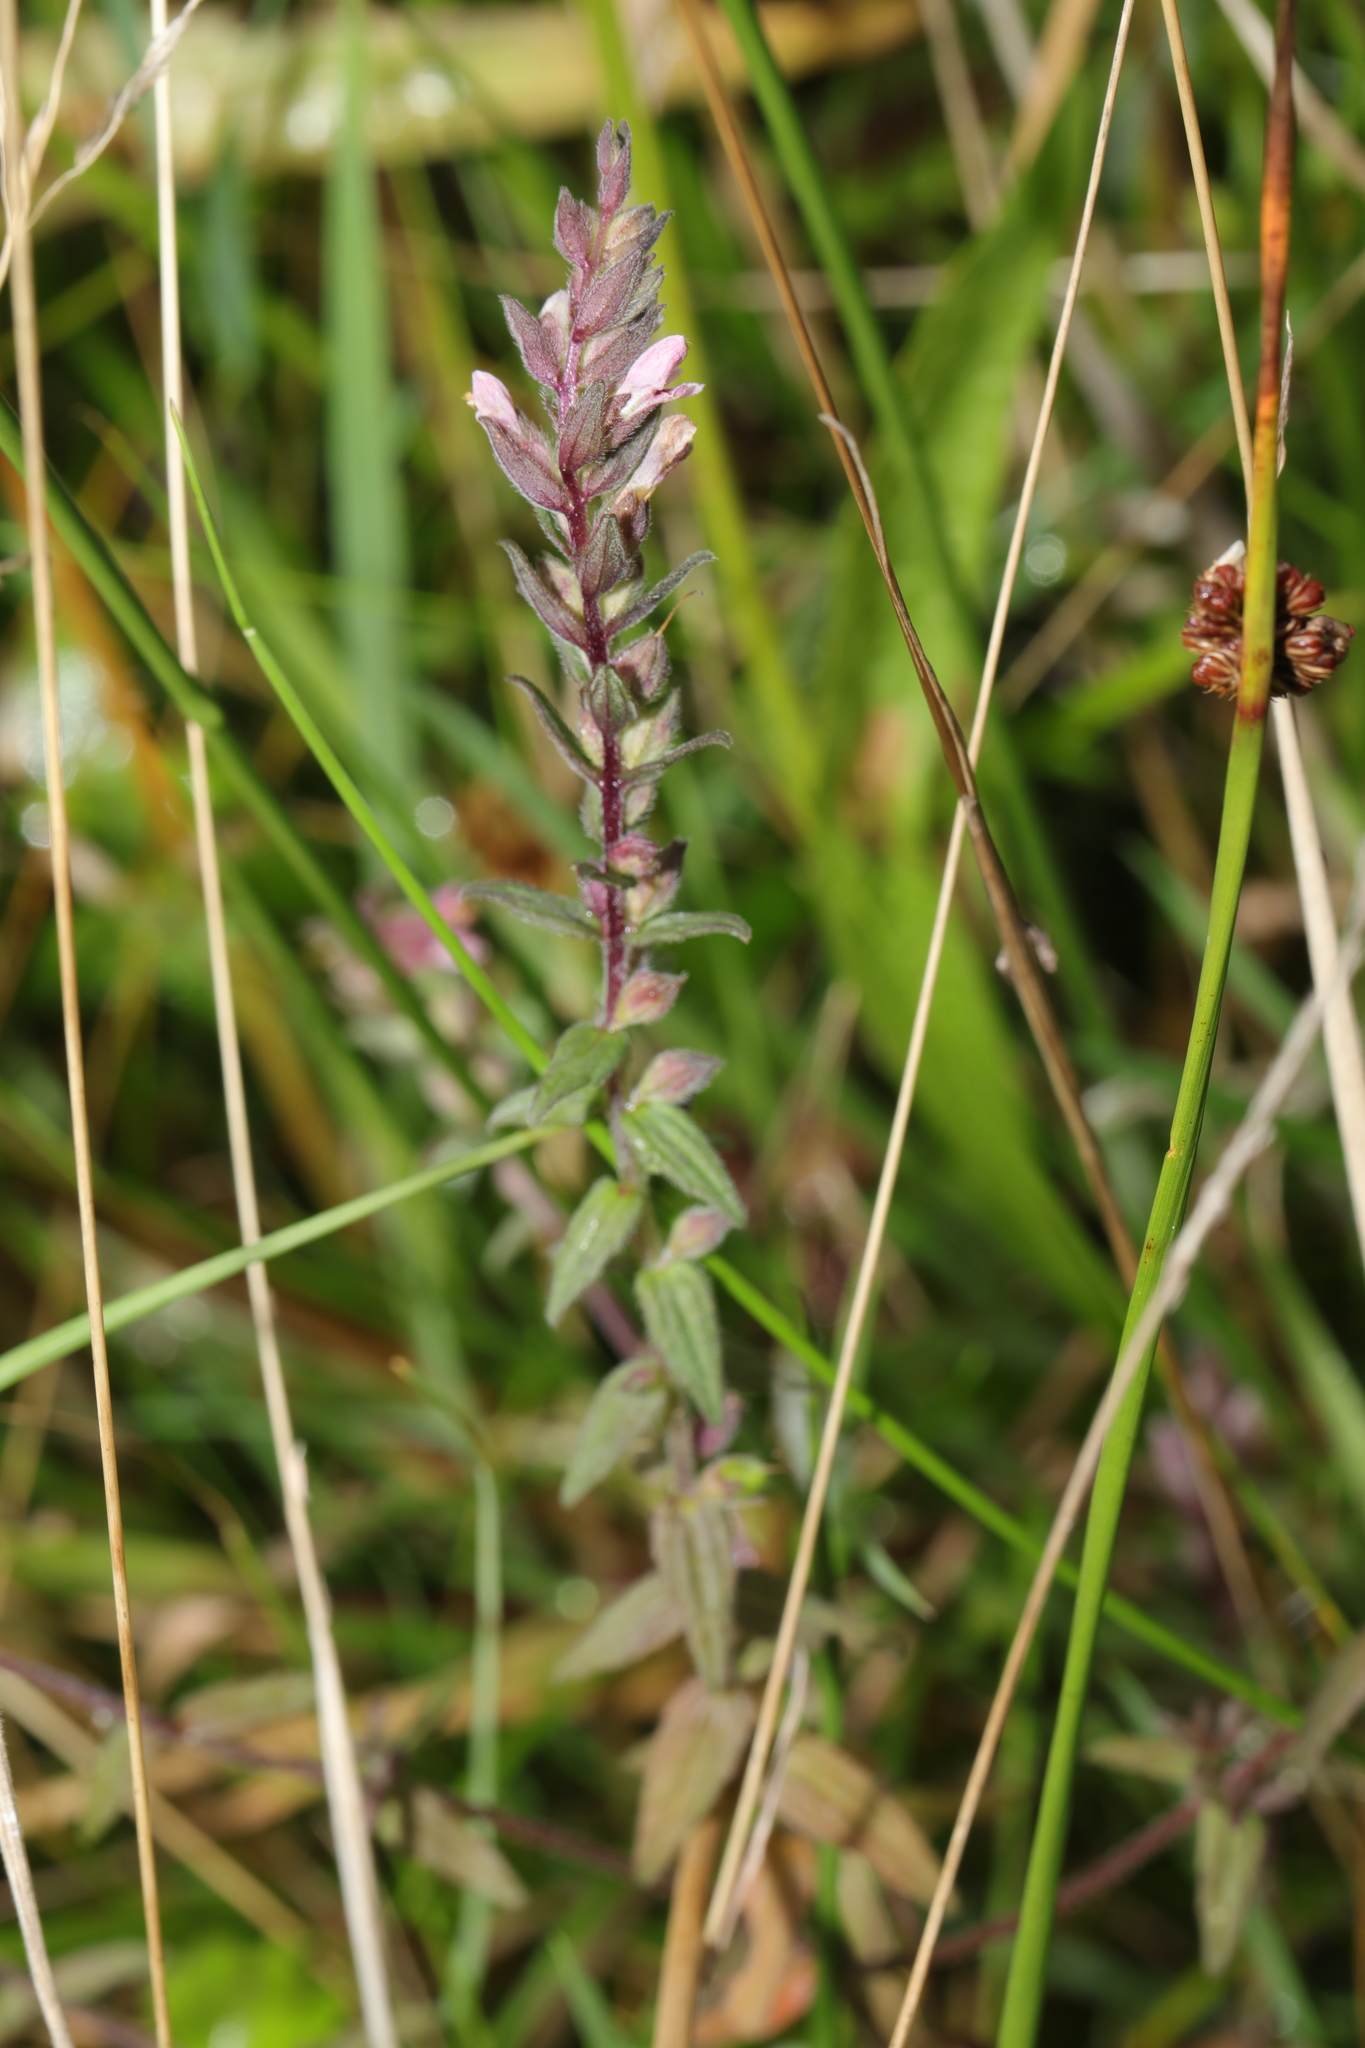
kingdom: Plantae
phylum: Tracheophyta
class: Magnoliopsida
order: Lamiales
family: Orobanchaceae
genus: Odontites
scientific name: Odontites vernus
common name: Red bartsia
